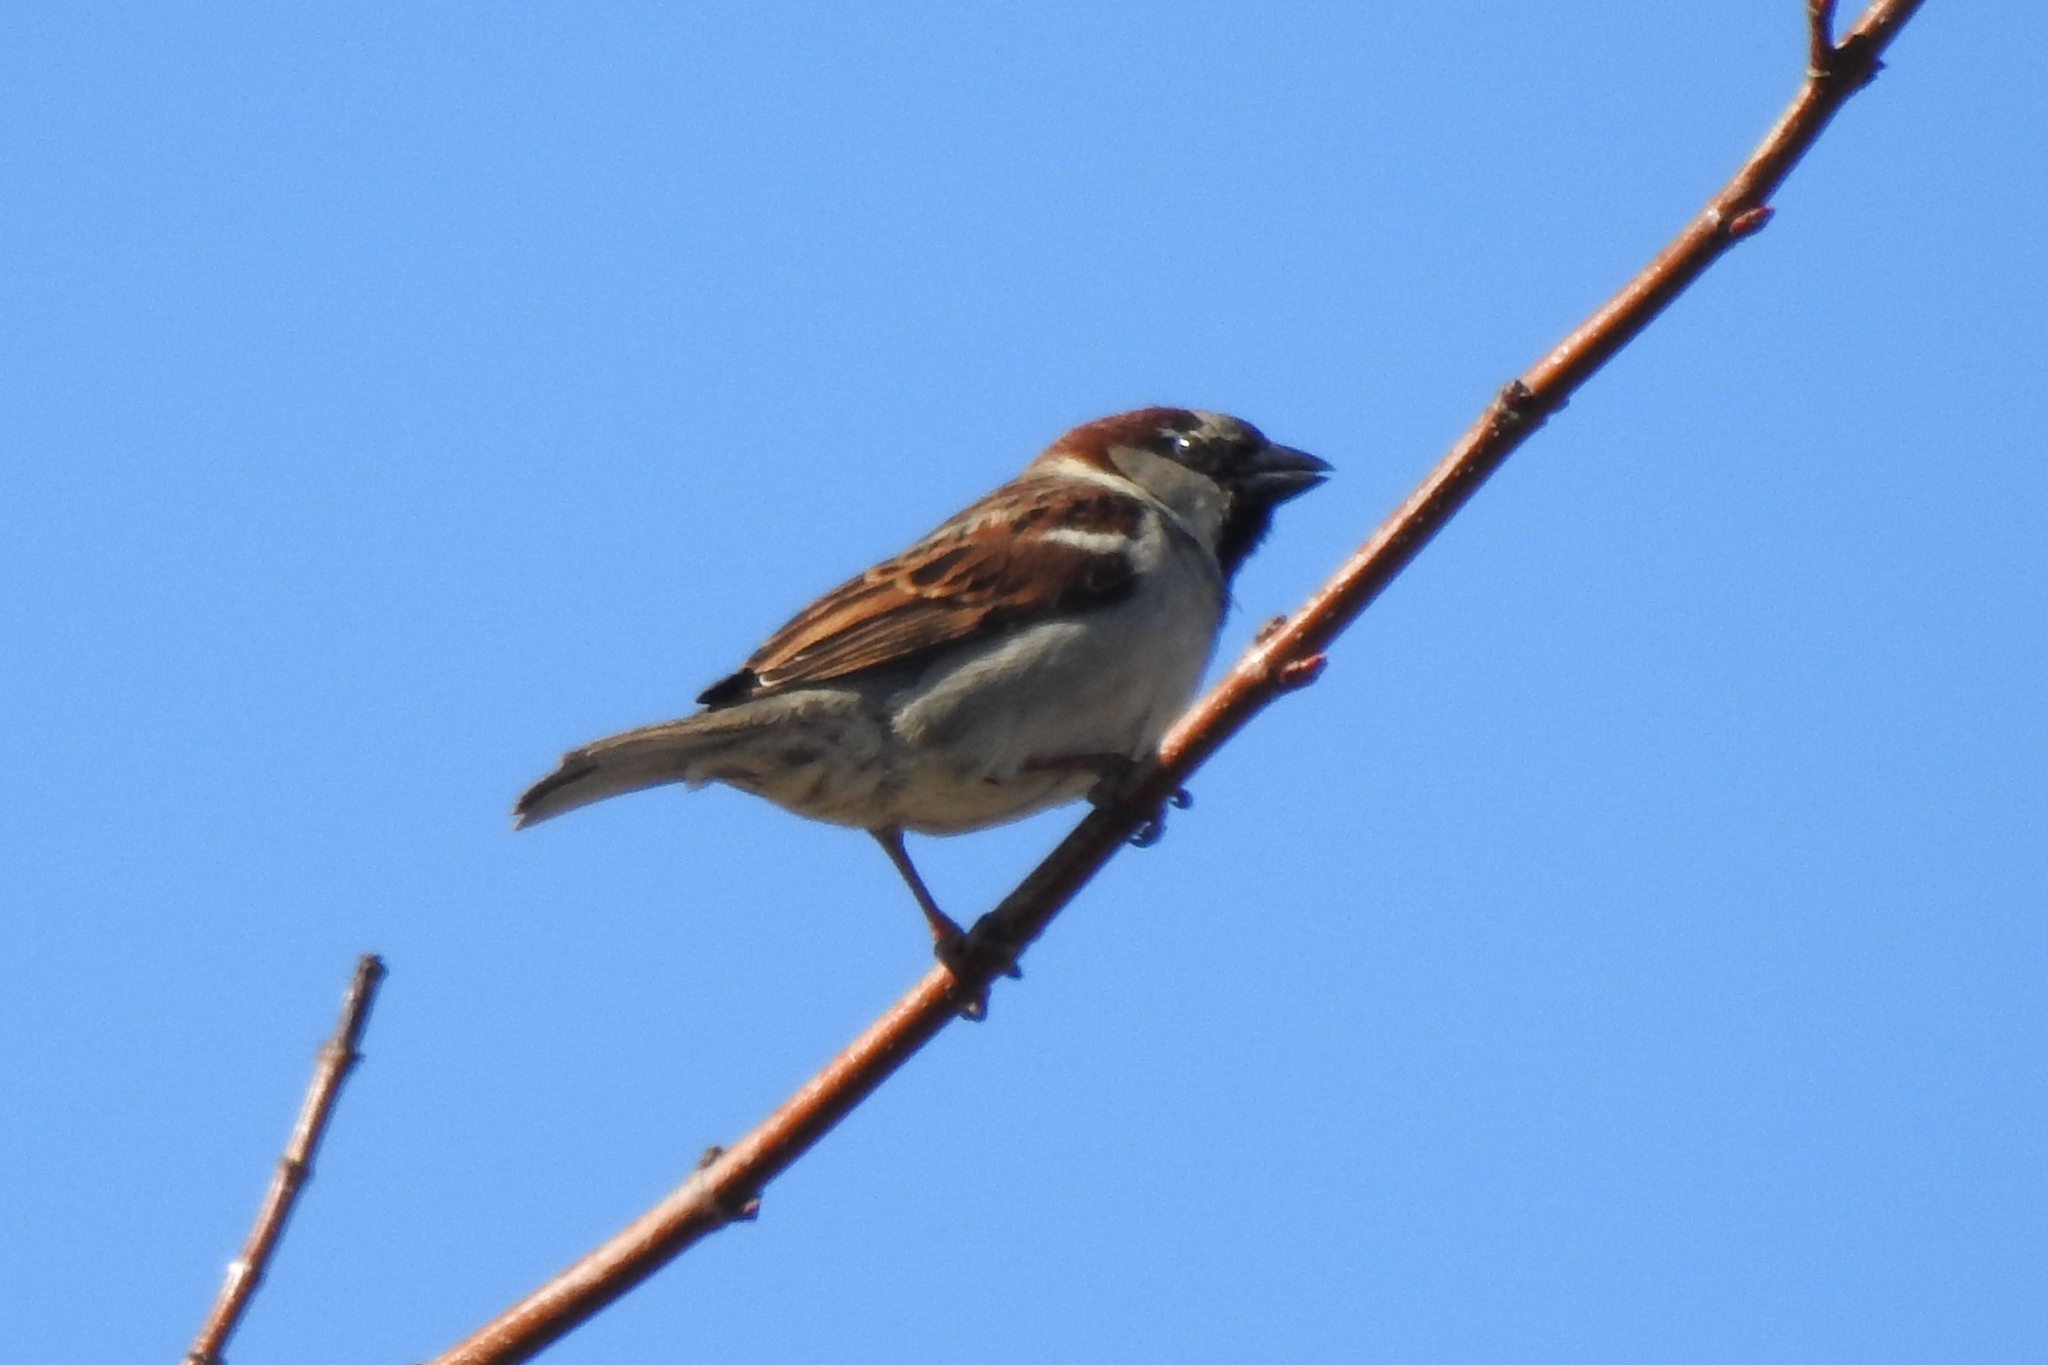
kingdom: Animalia
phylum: Chordata
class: Aves
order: Passeriformes
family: Passeridae
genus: Passer
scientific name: Passer domesticus
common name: House sparrow
